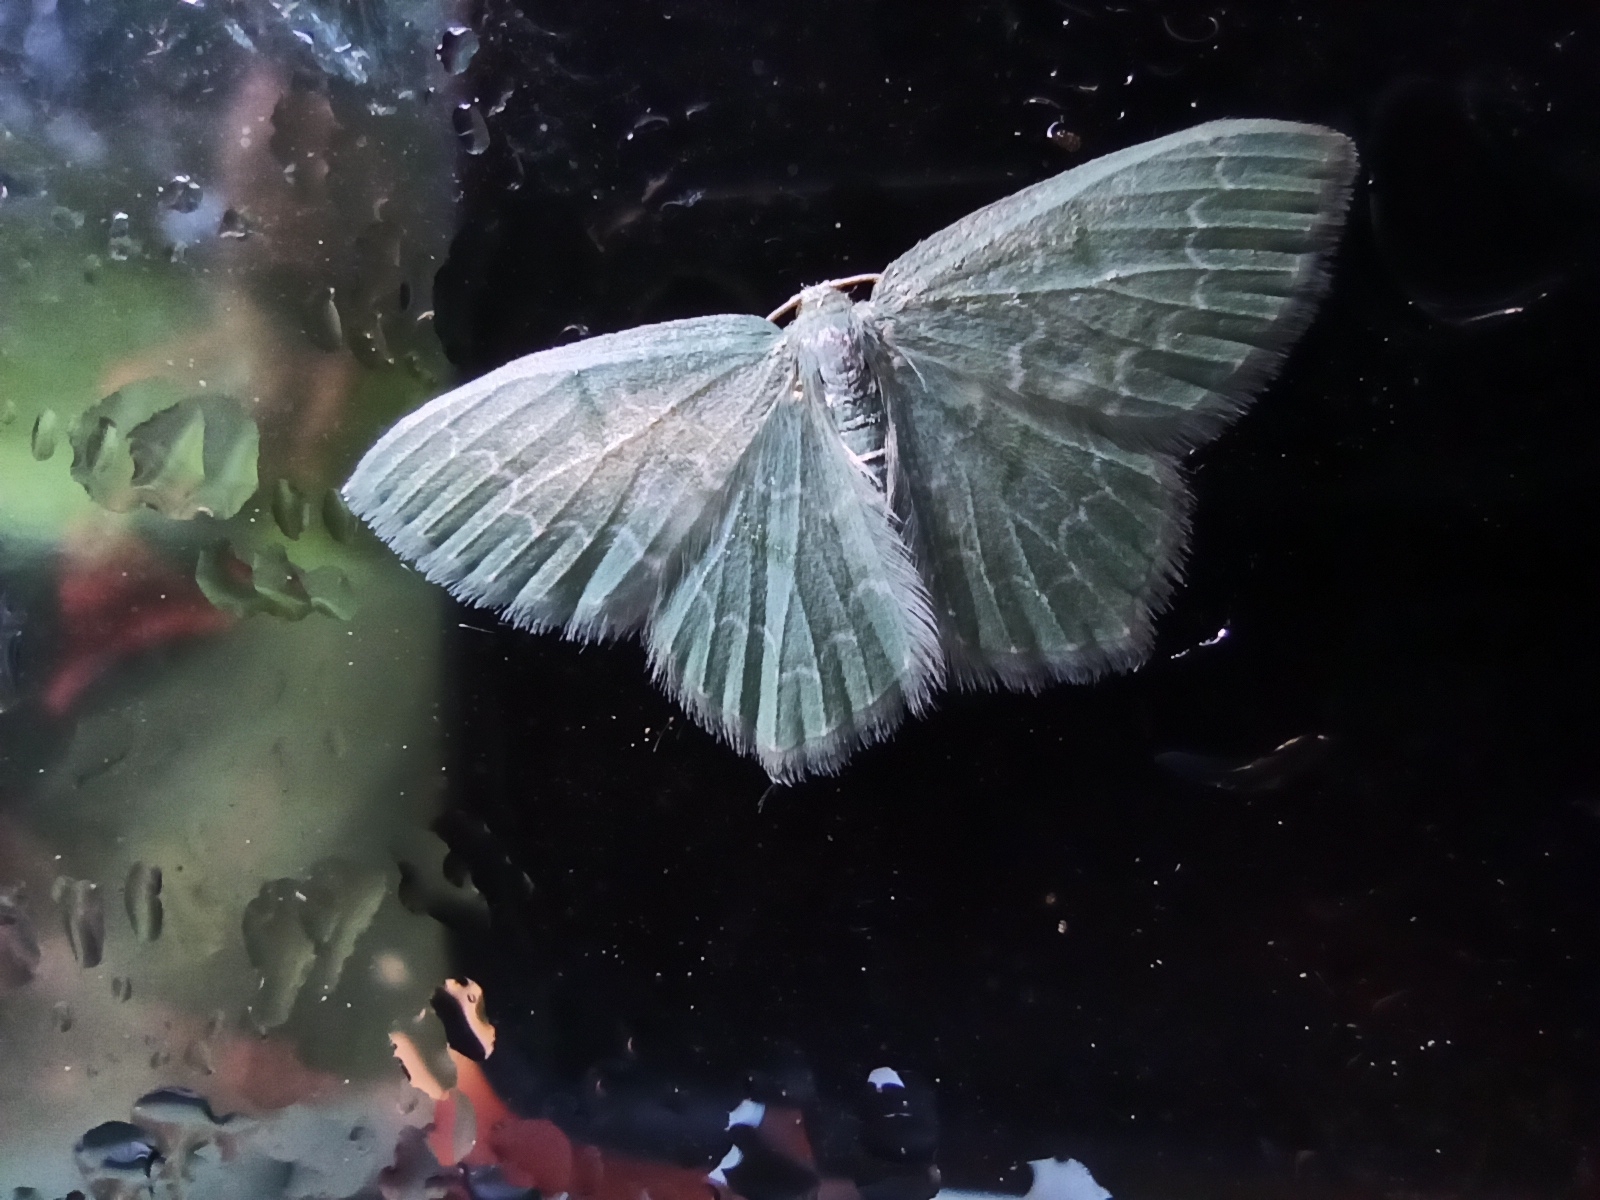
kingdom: Animalia
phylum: Arthropoda
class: Insecta
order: Lepidoptera
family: Geometridae
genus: Jodis
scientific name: Jodis putata
